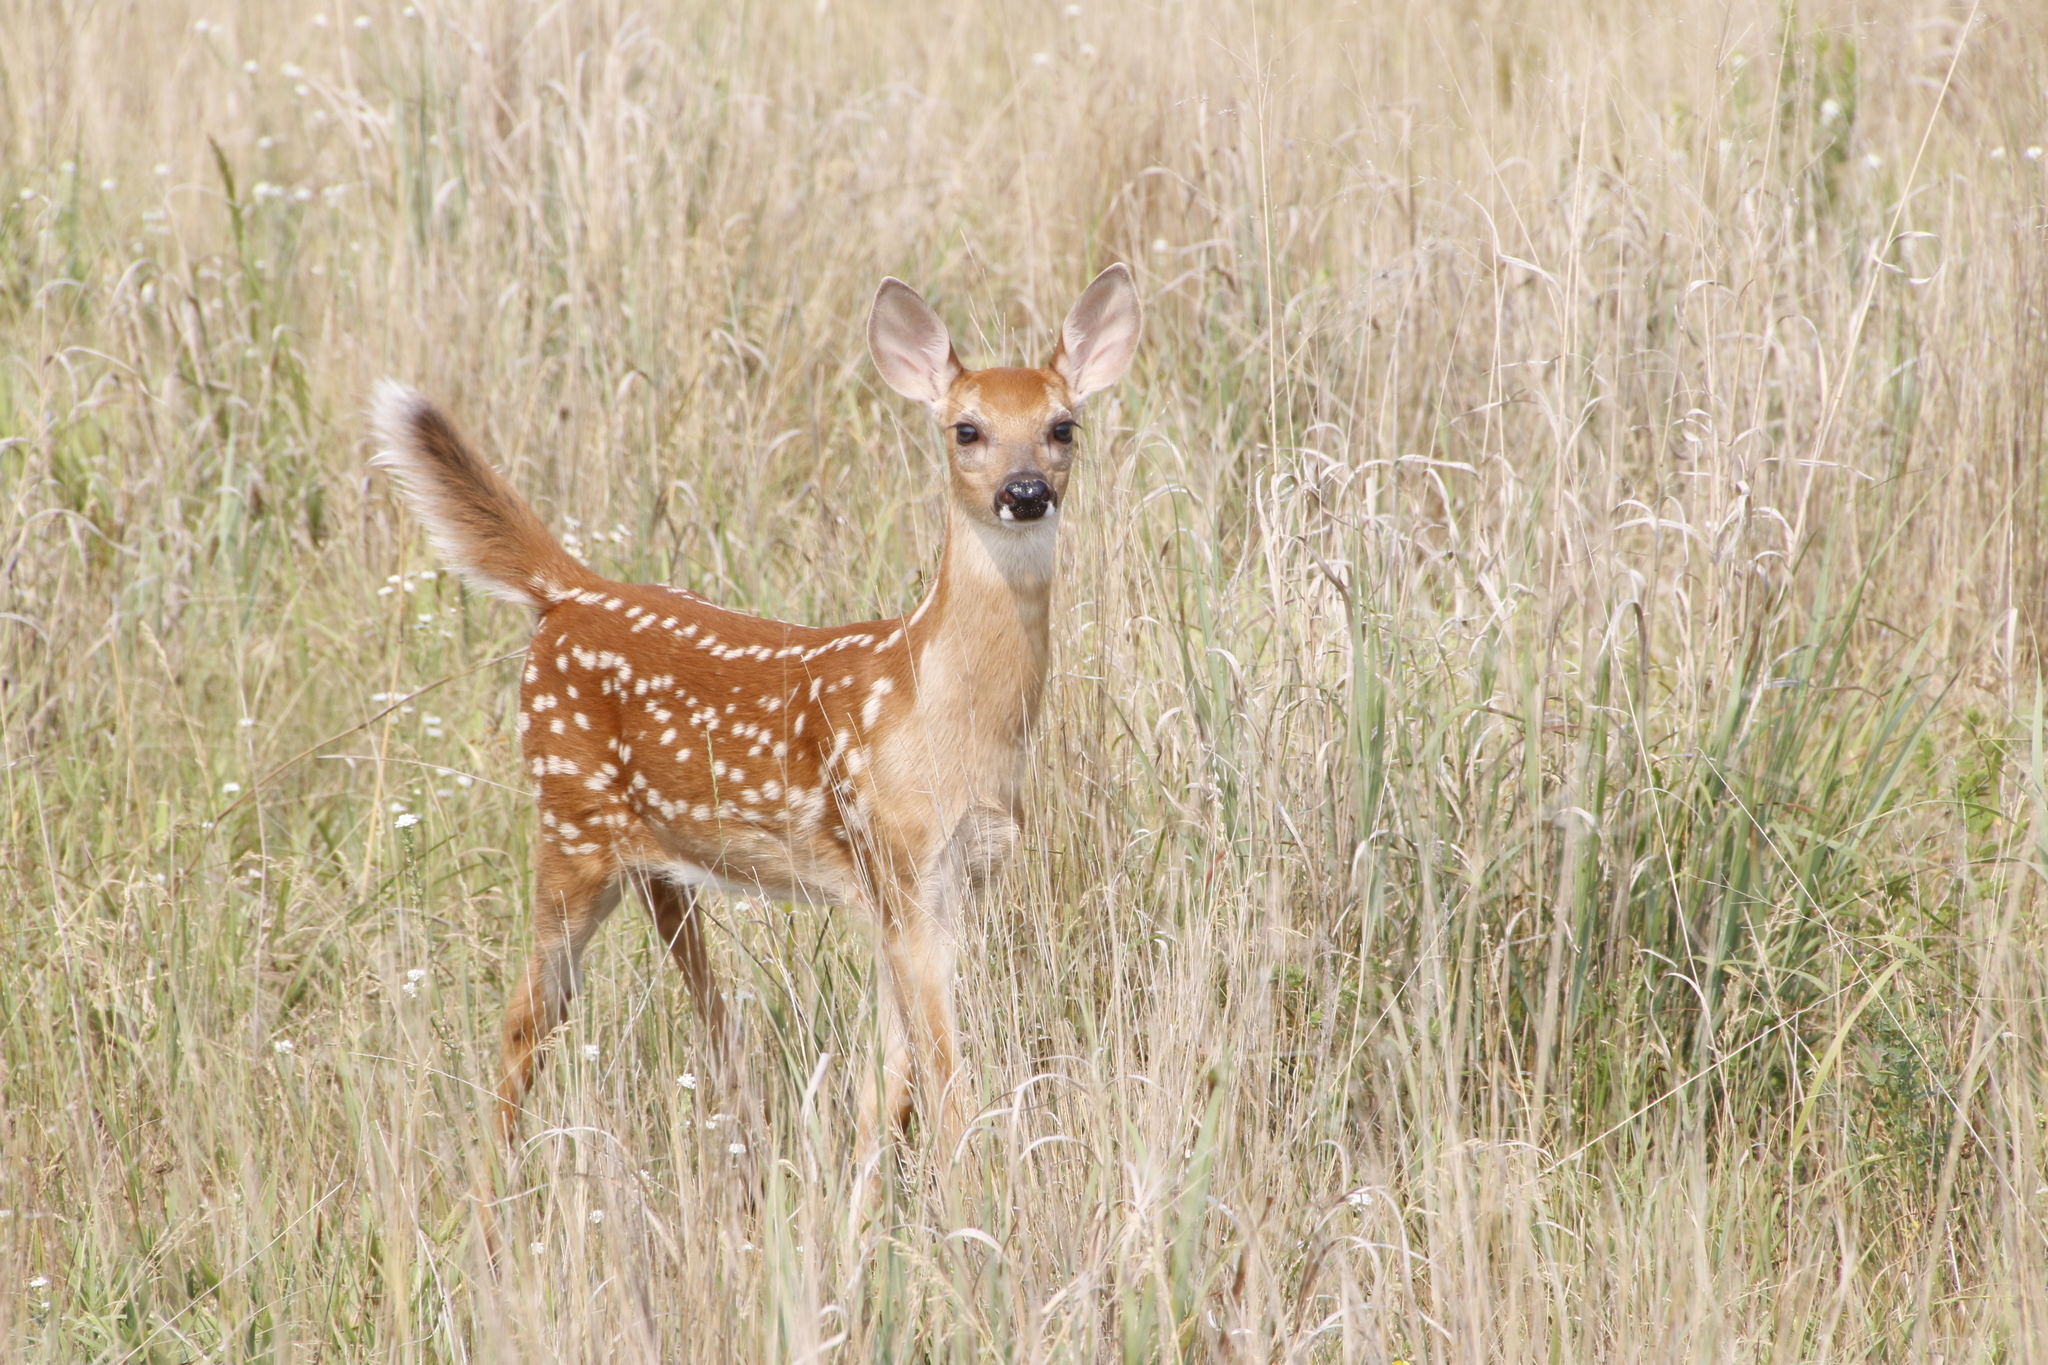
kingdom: Animalia
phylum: Chordata
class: Mammalia
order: Artiodactyla
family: Cervidae
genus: Odocoileus
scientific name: Odocoileus virginianus
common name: White-tailed deer
